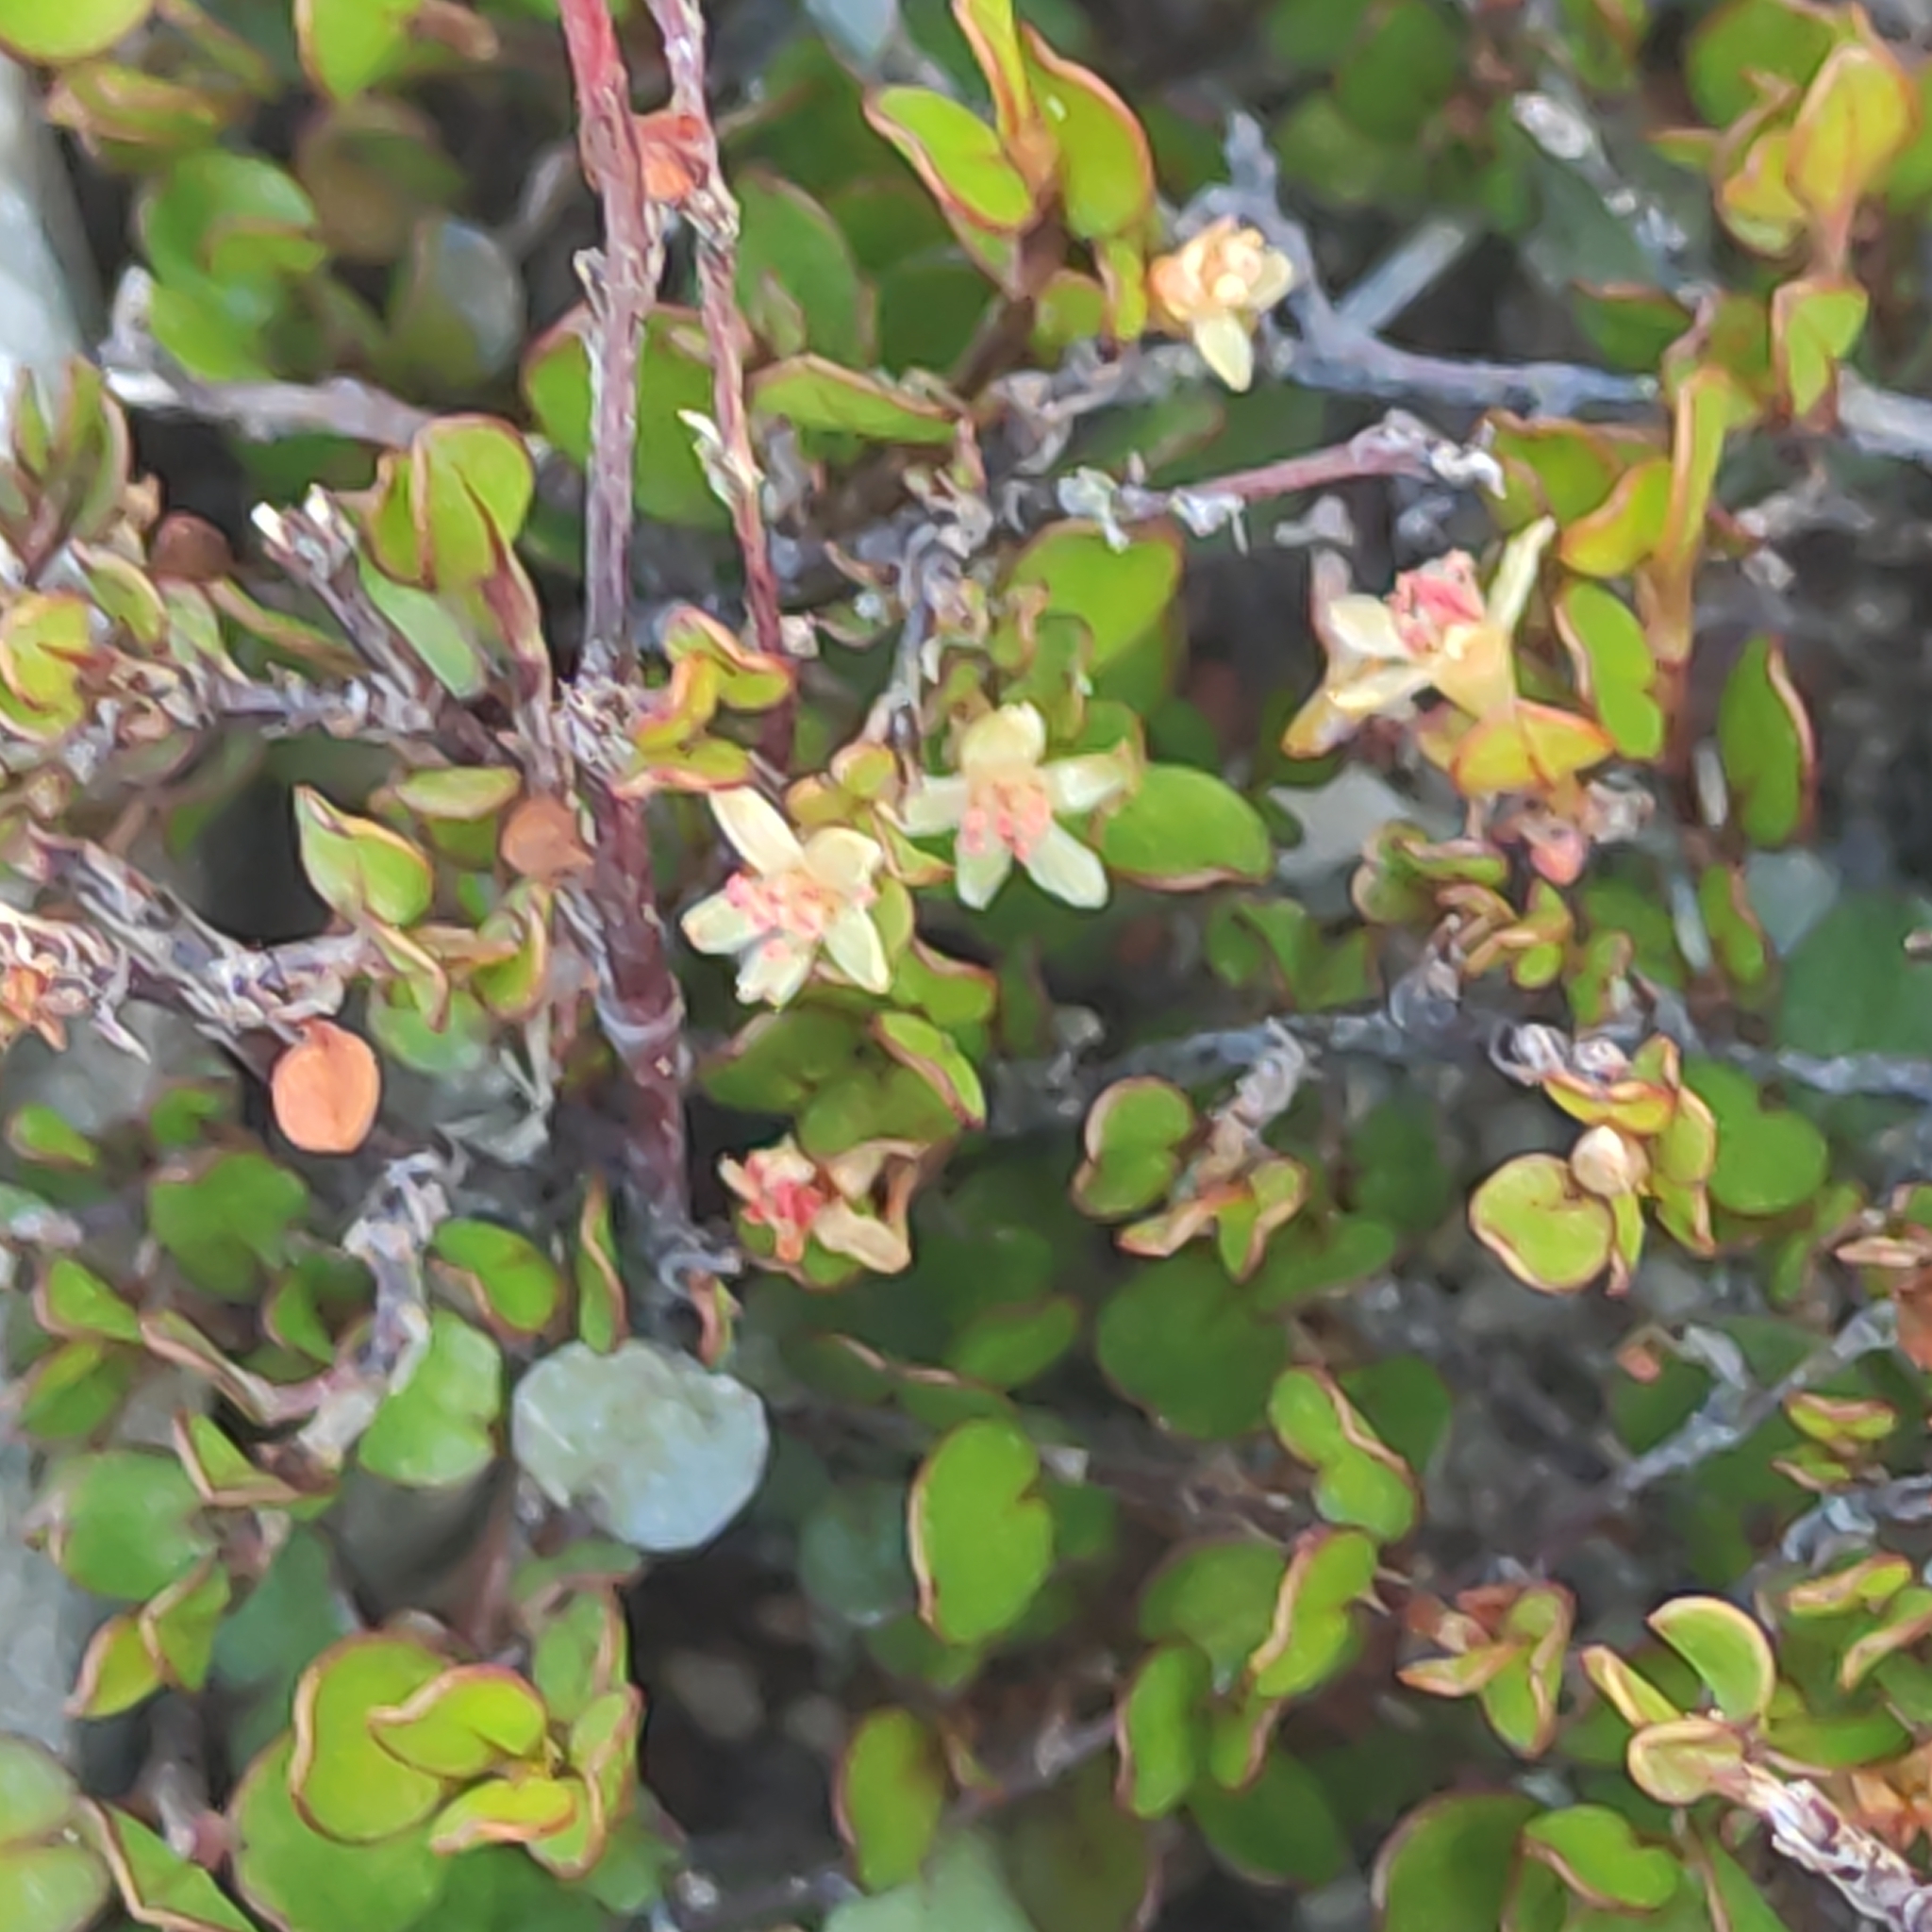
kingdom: Plantae
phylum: Tracheophyta
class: Magnoliopsida
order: Caryophyllales
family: Polygonaceae
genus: Muehlenbeckia
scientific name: Muehlenbeckia axillaris
